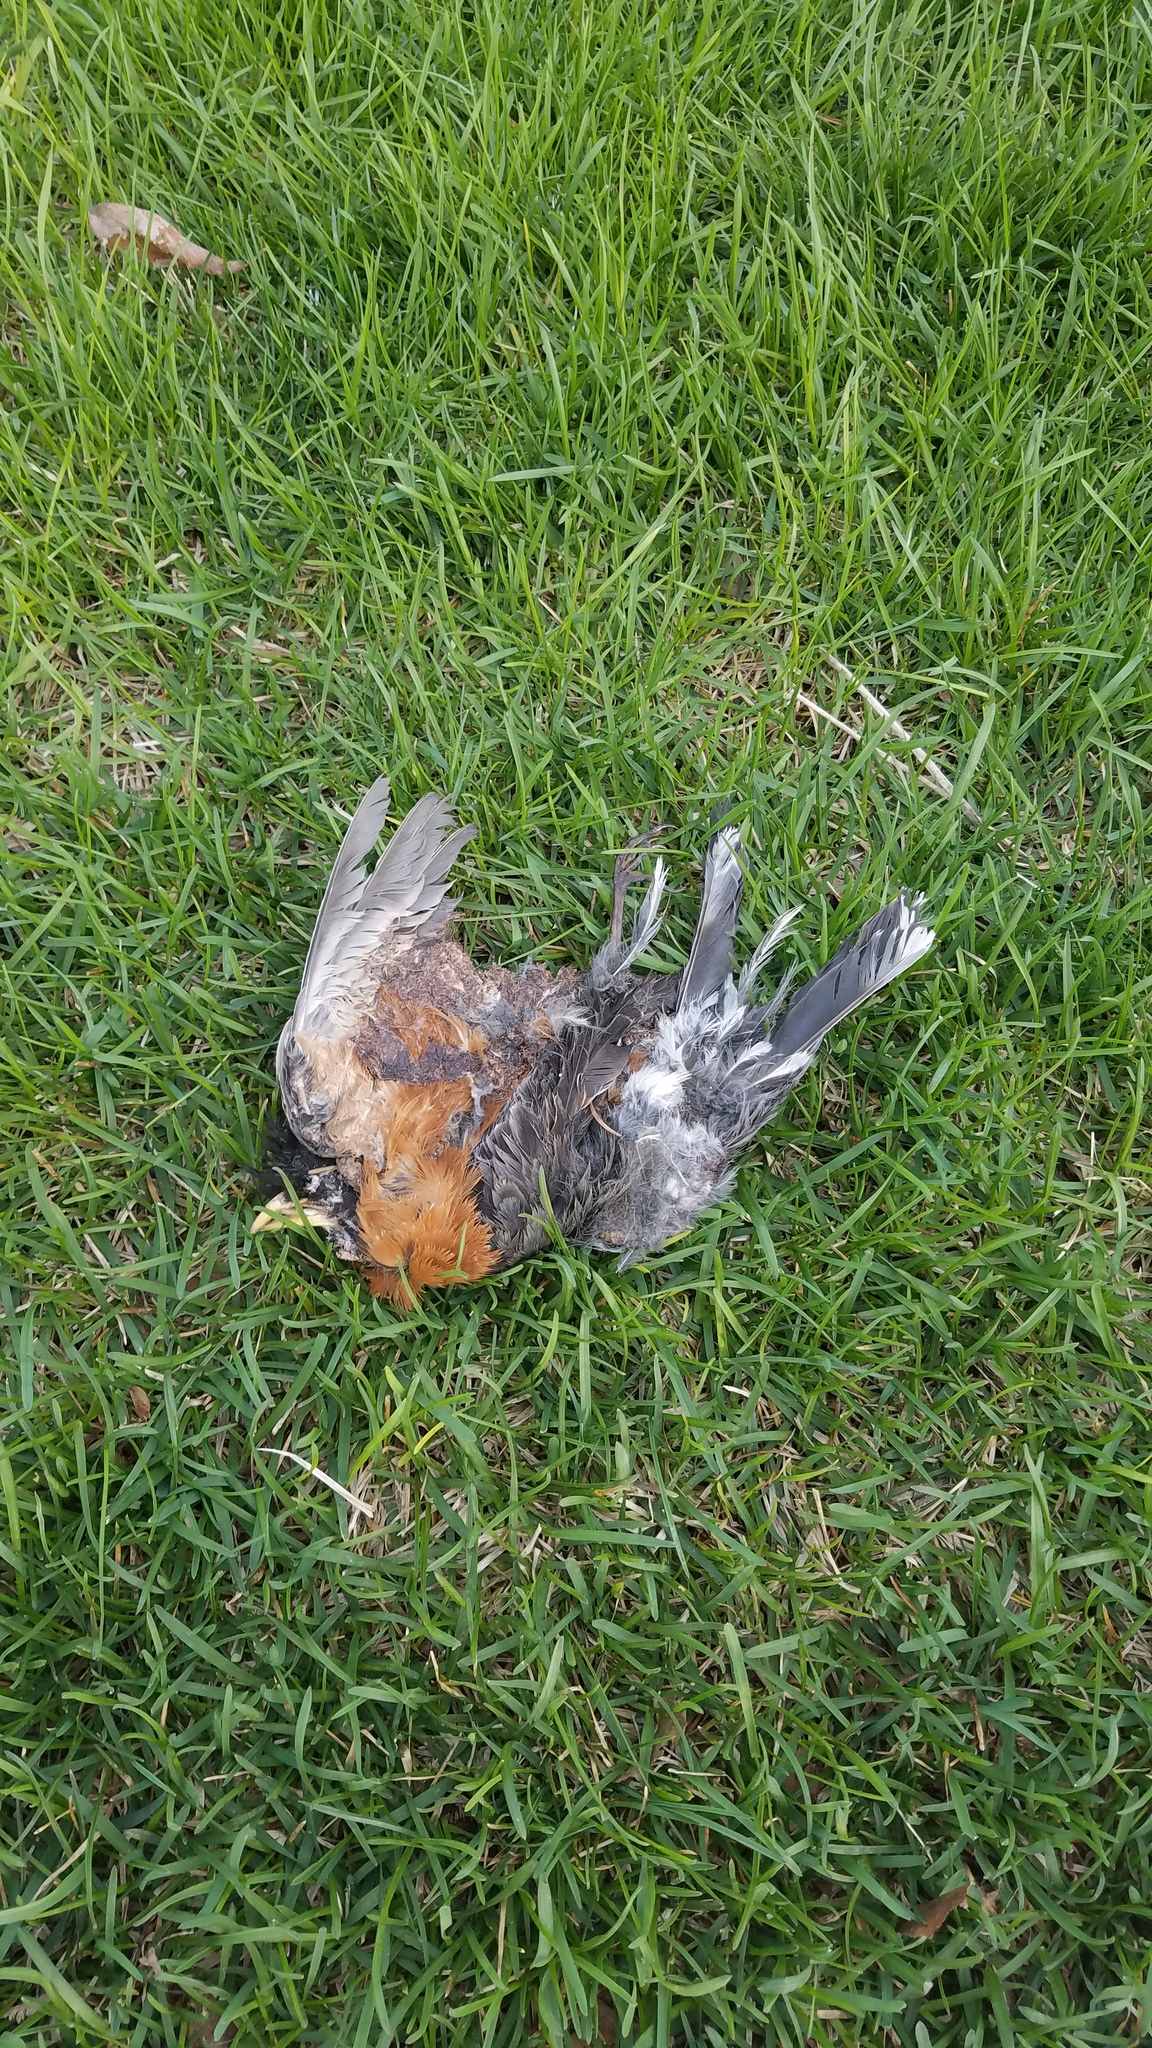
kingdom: Animalia
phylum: Chordata
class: Aves
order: Passeriformes
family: Turdidae
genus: Turdus
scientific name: Turdus migratorius
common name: American robin
